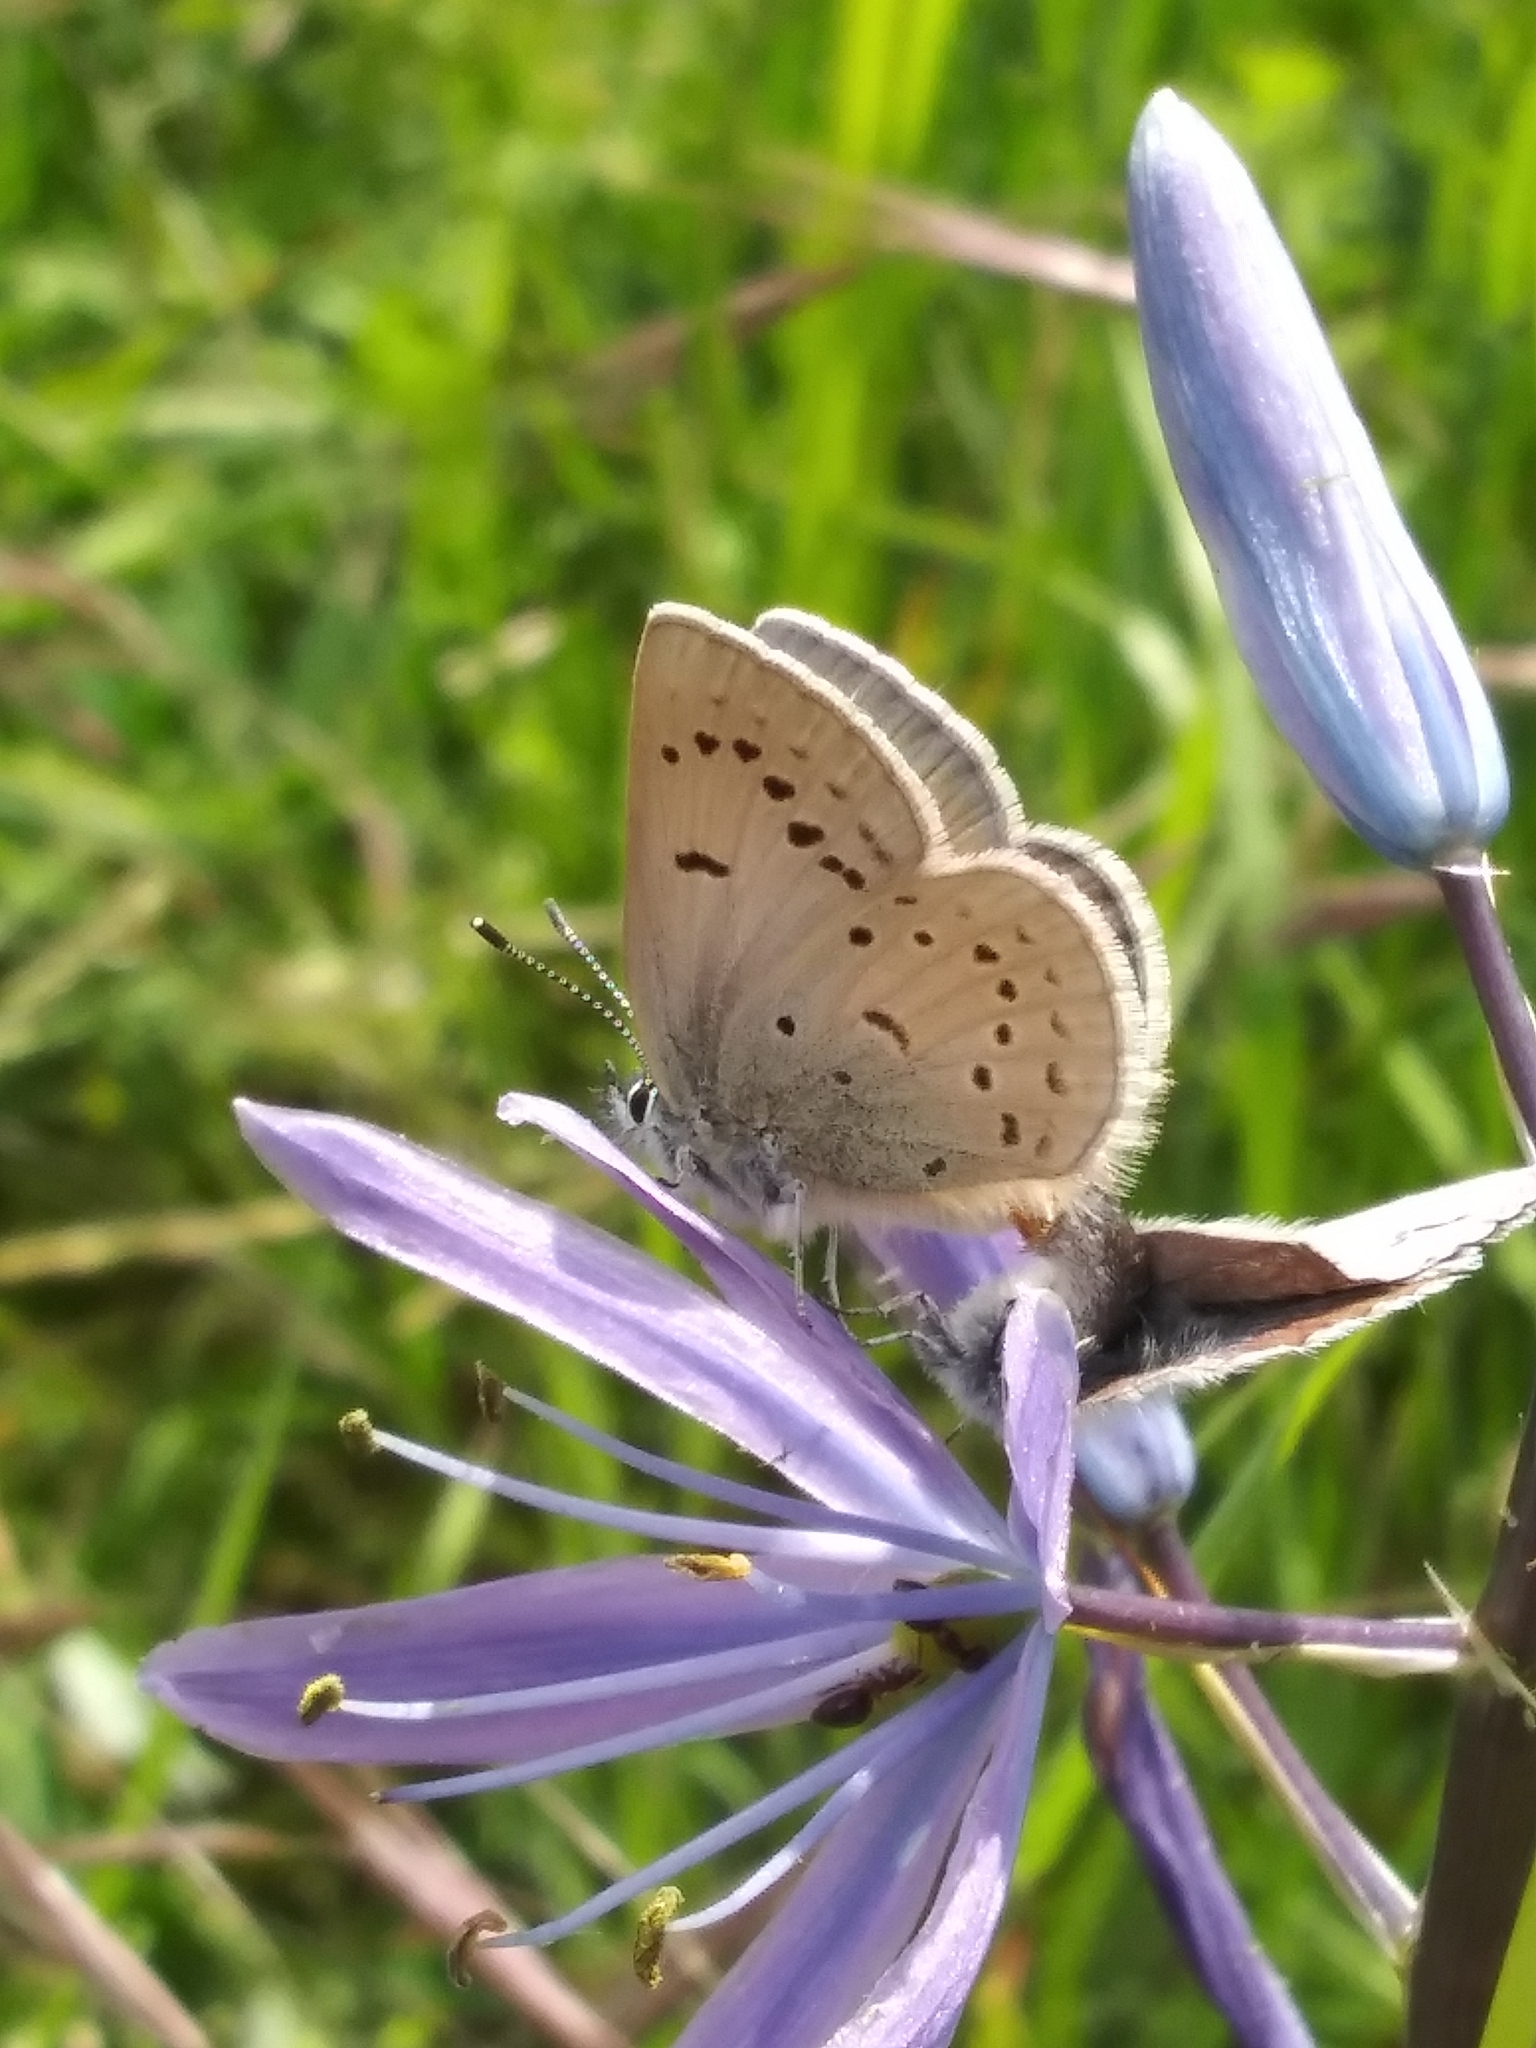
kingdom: Animalia
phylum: Arthropoda
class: Insecta
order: Lepidoptera
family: Lycaenidae
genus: Icaricia
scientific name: Icaricia icarioides
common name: Boisduval's blue
